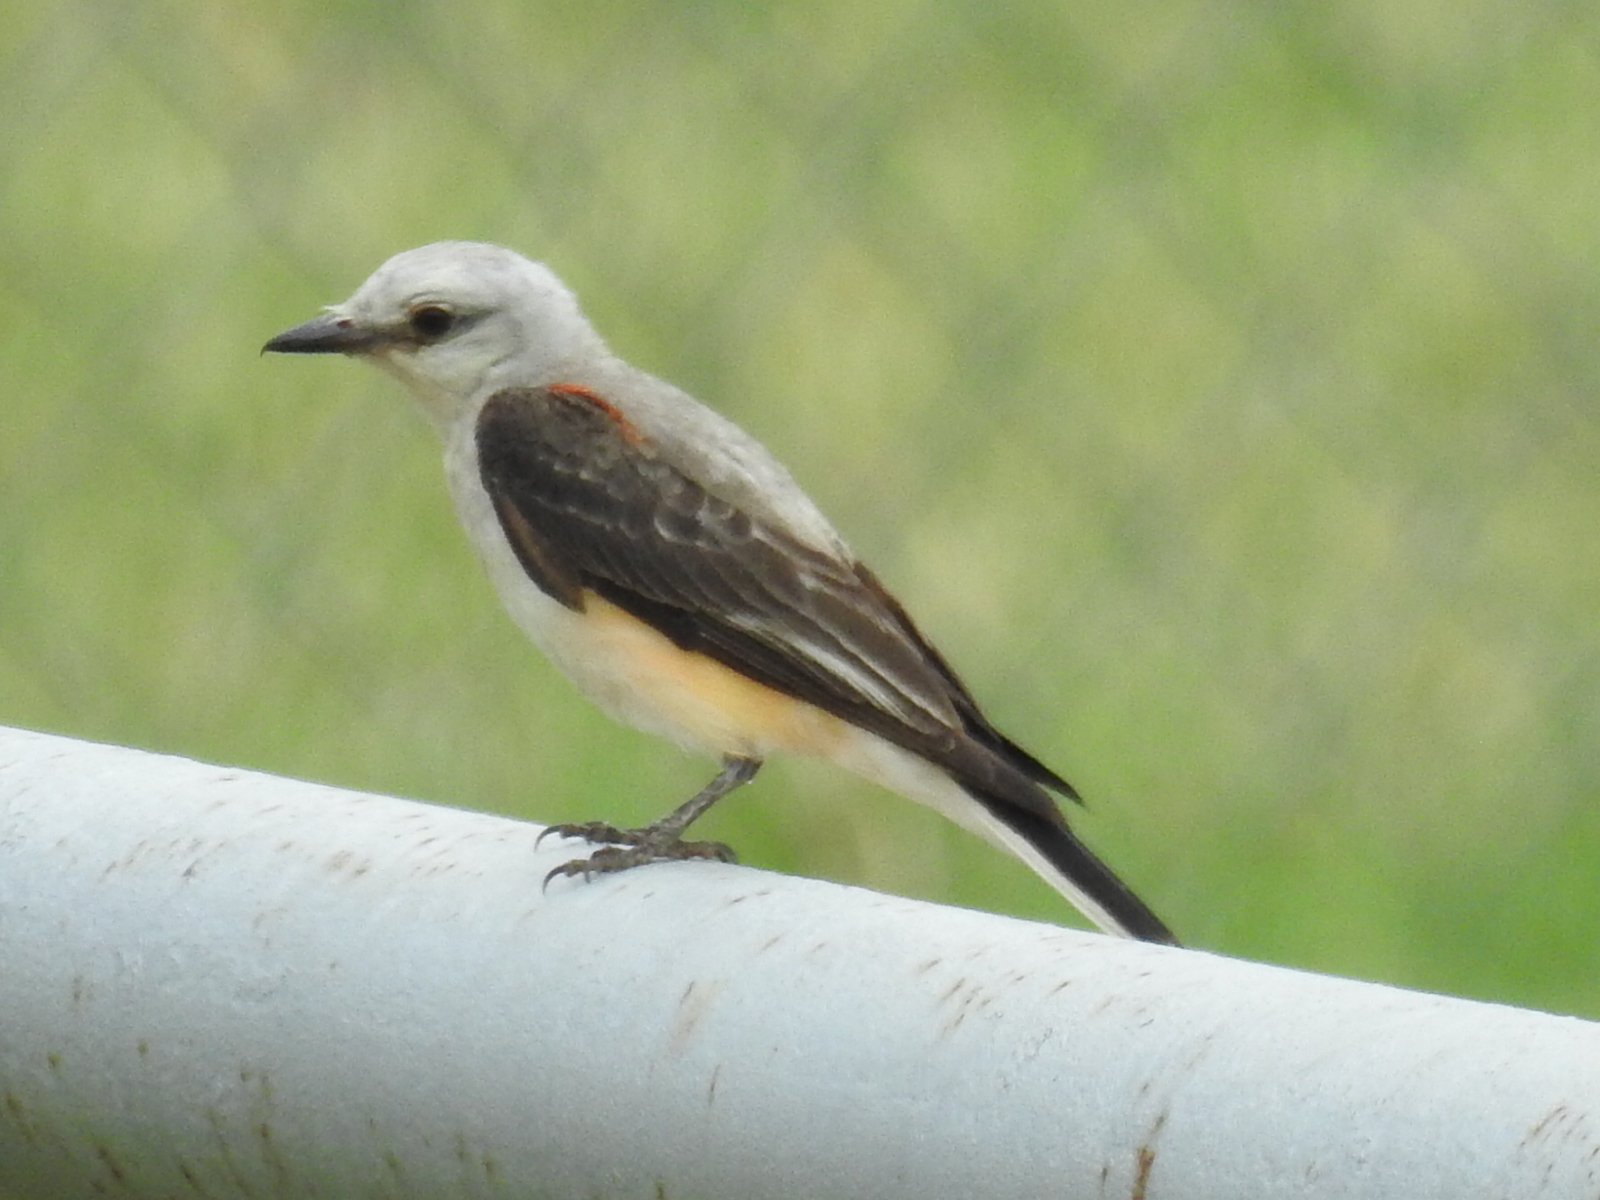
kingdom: Animalia
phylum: Chordata
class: Aves
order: Passeriformes
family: Tyrannidae
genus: Tyrannus
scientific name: Tyrannus forficatus
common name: Scissor-tailed flycatcher
